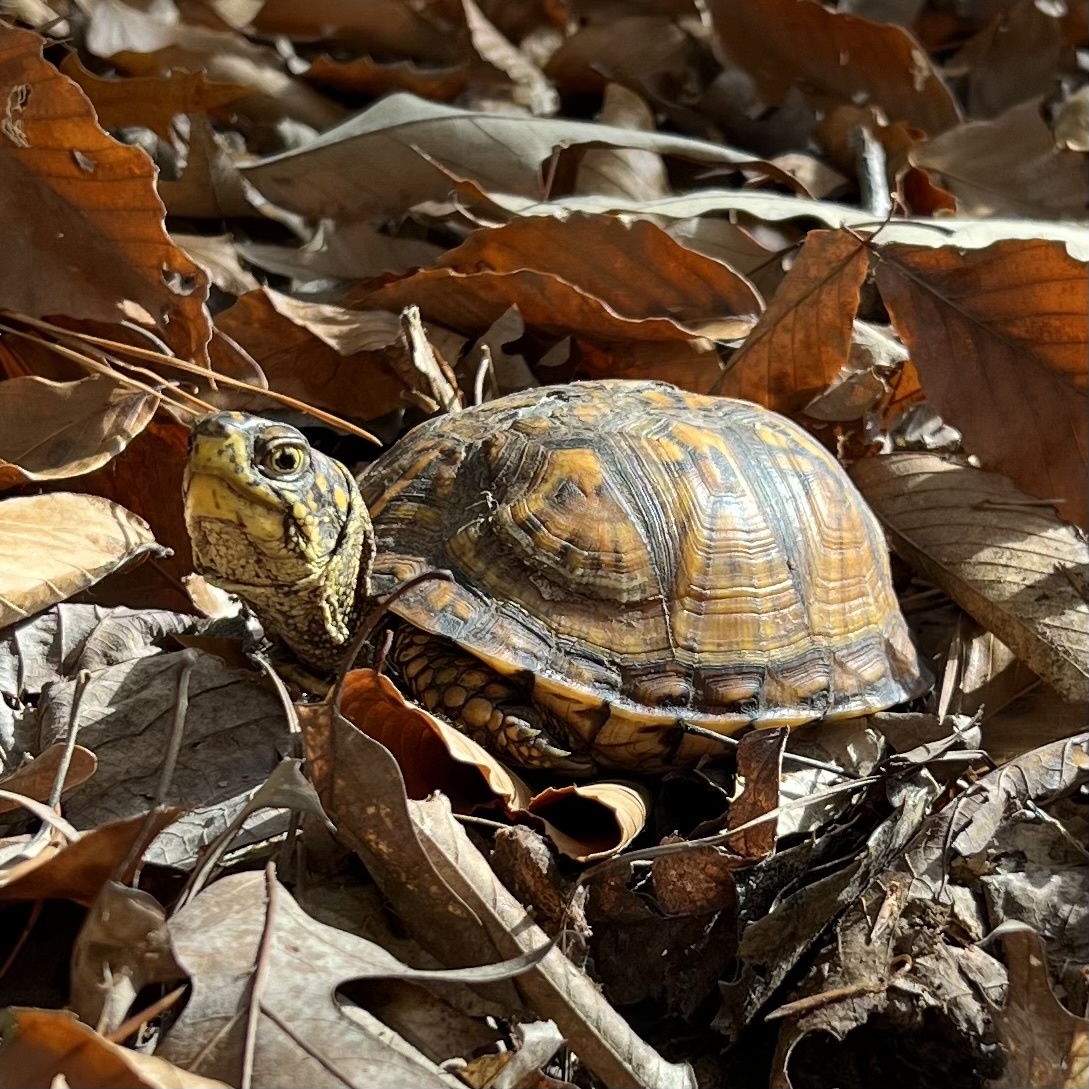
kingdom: Animalia
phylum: Chordata
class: Testudines
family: Emydidae
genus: Terrapene
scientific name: Terrapene carolina
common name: Common box turtle
